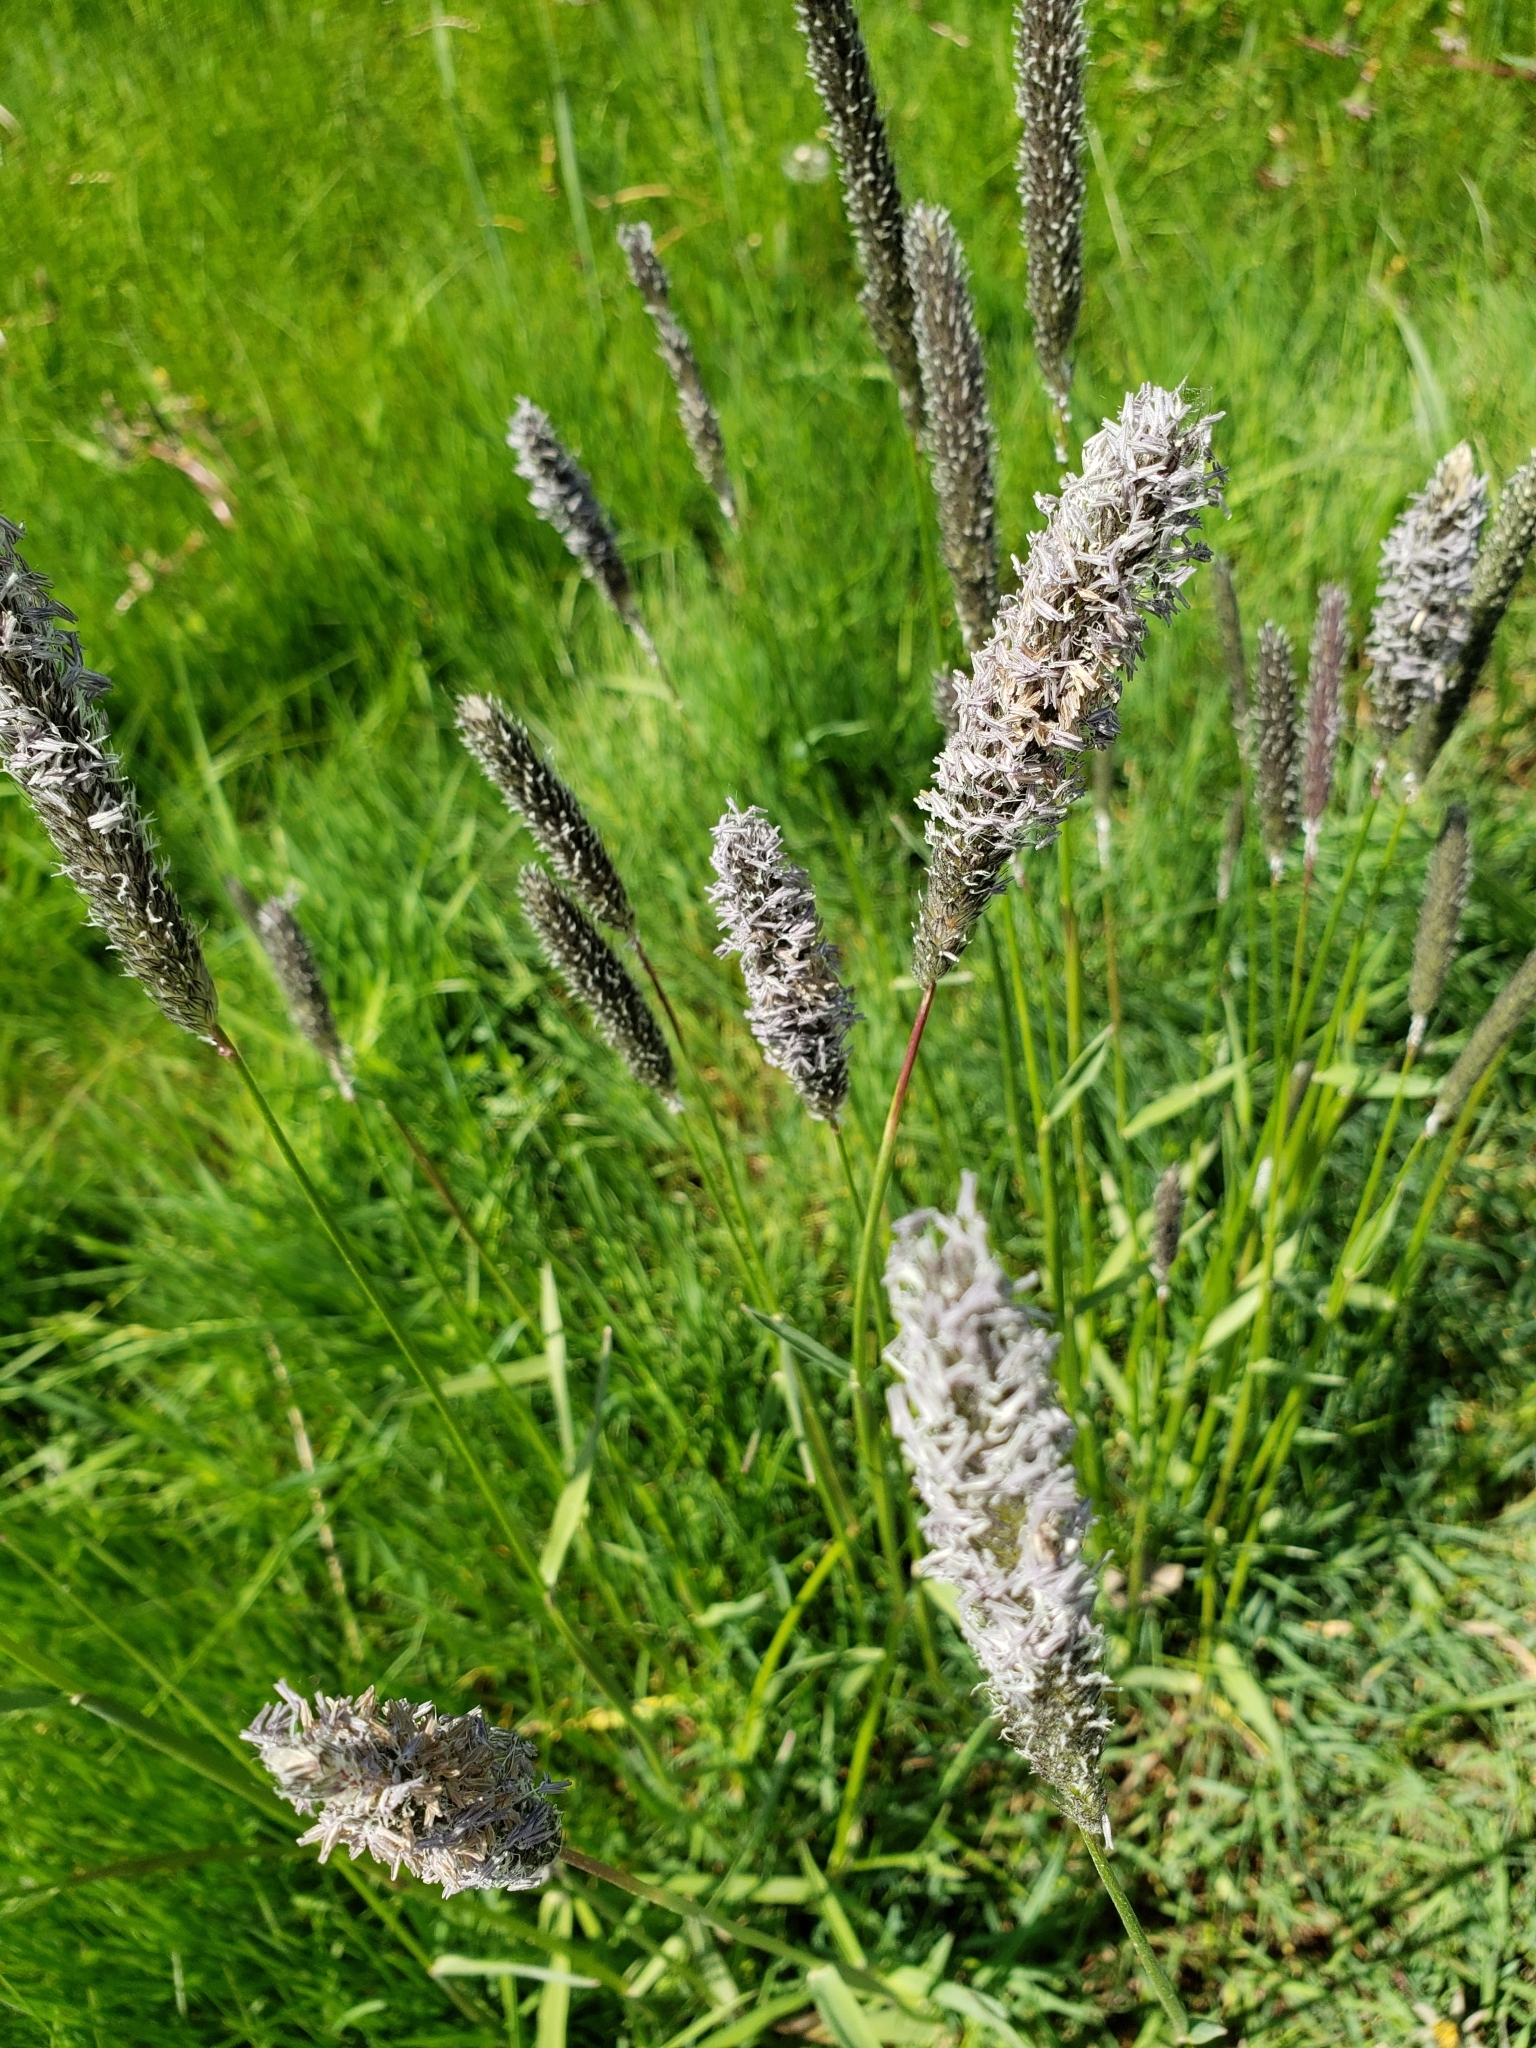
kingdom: Plantae
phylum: Tracheophyta
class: Liliopsida
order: Poales
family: Poaceae
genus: Alopecurus
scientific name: Alopecurus pratensis
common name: Meadow foxtail
